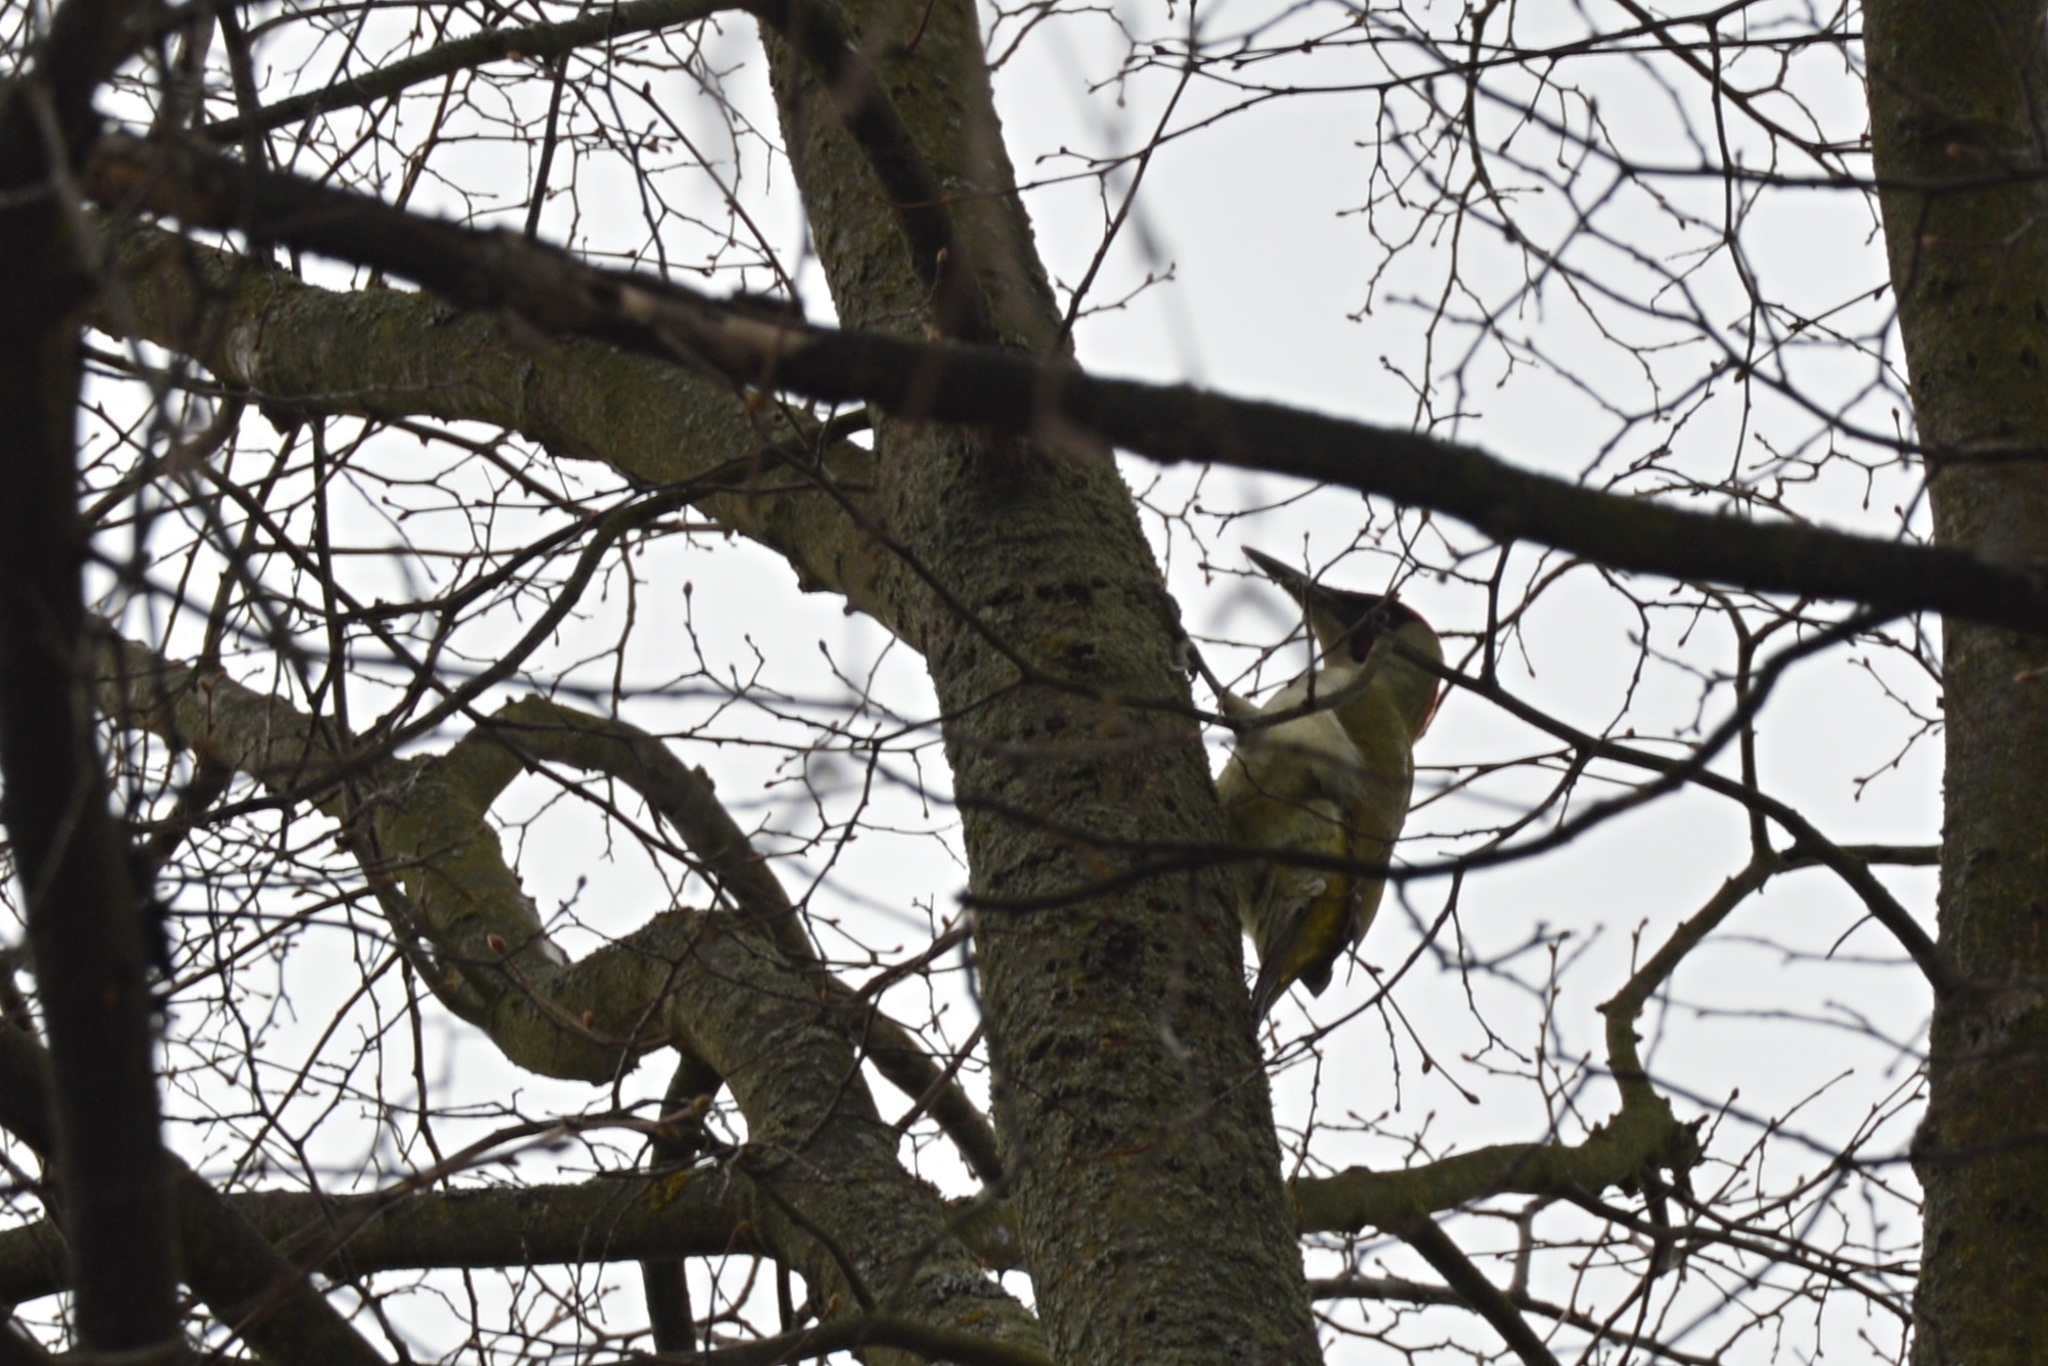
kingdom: Animalia
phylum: Chordata
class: Aves
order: Piciformes
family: Picidae
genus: Picus
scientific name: Picus viridis
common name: European green woodpecker
